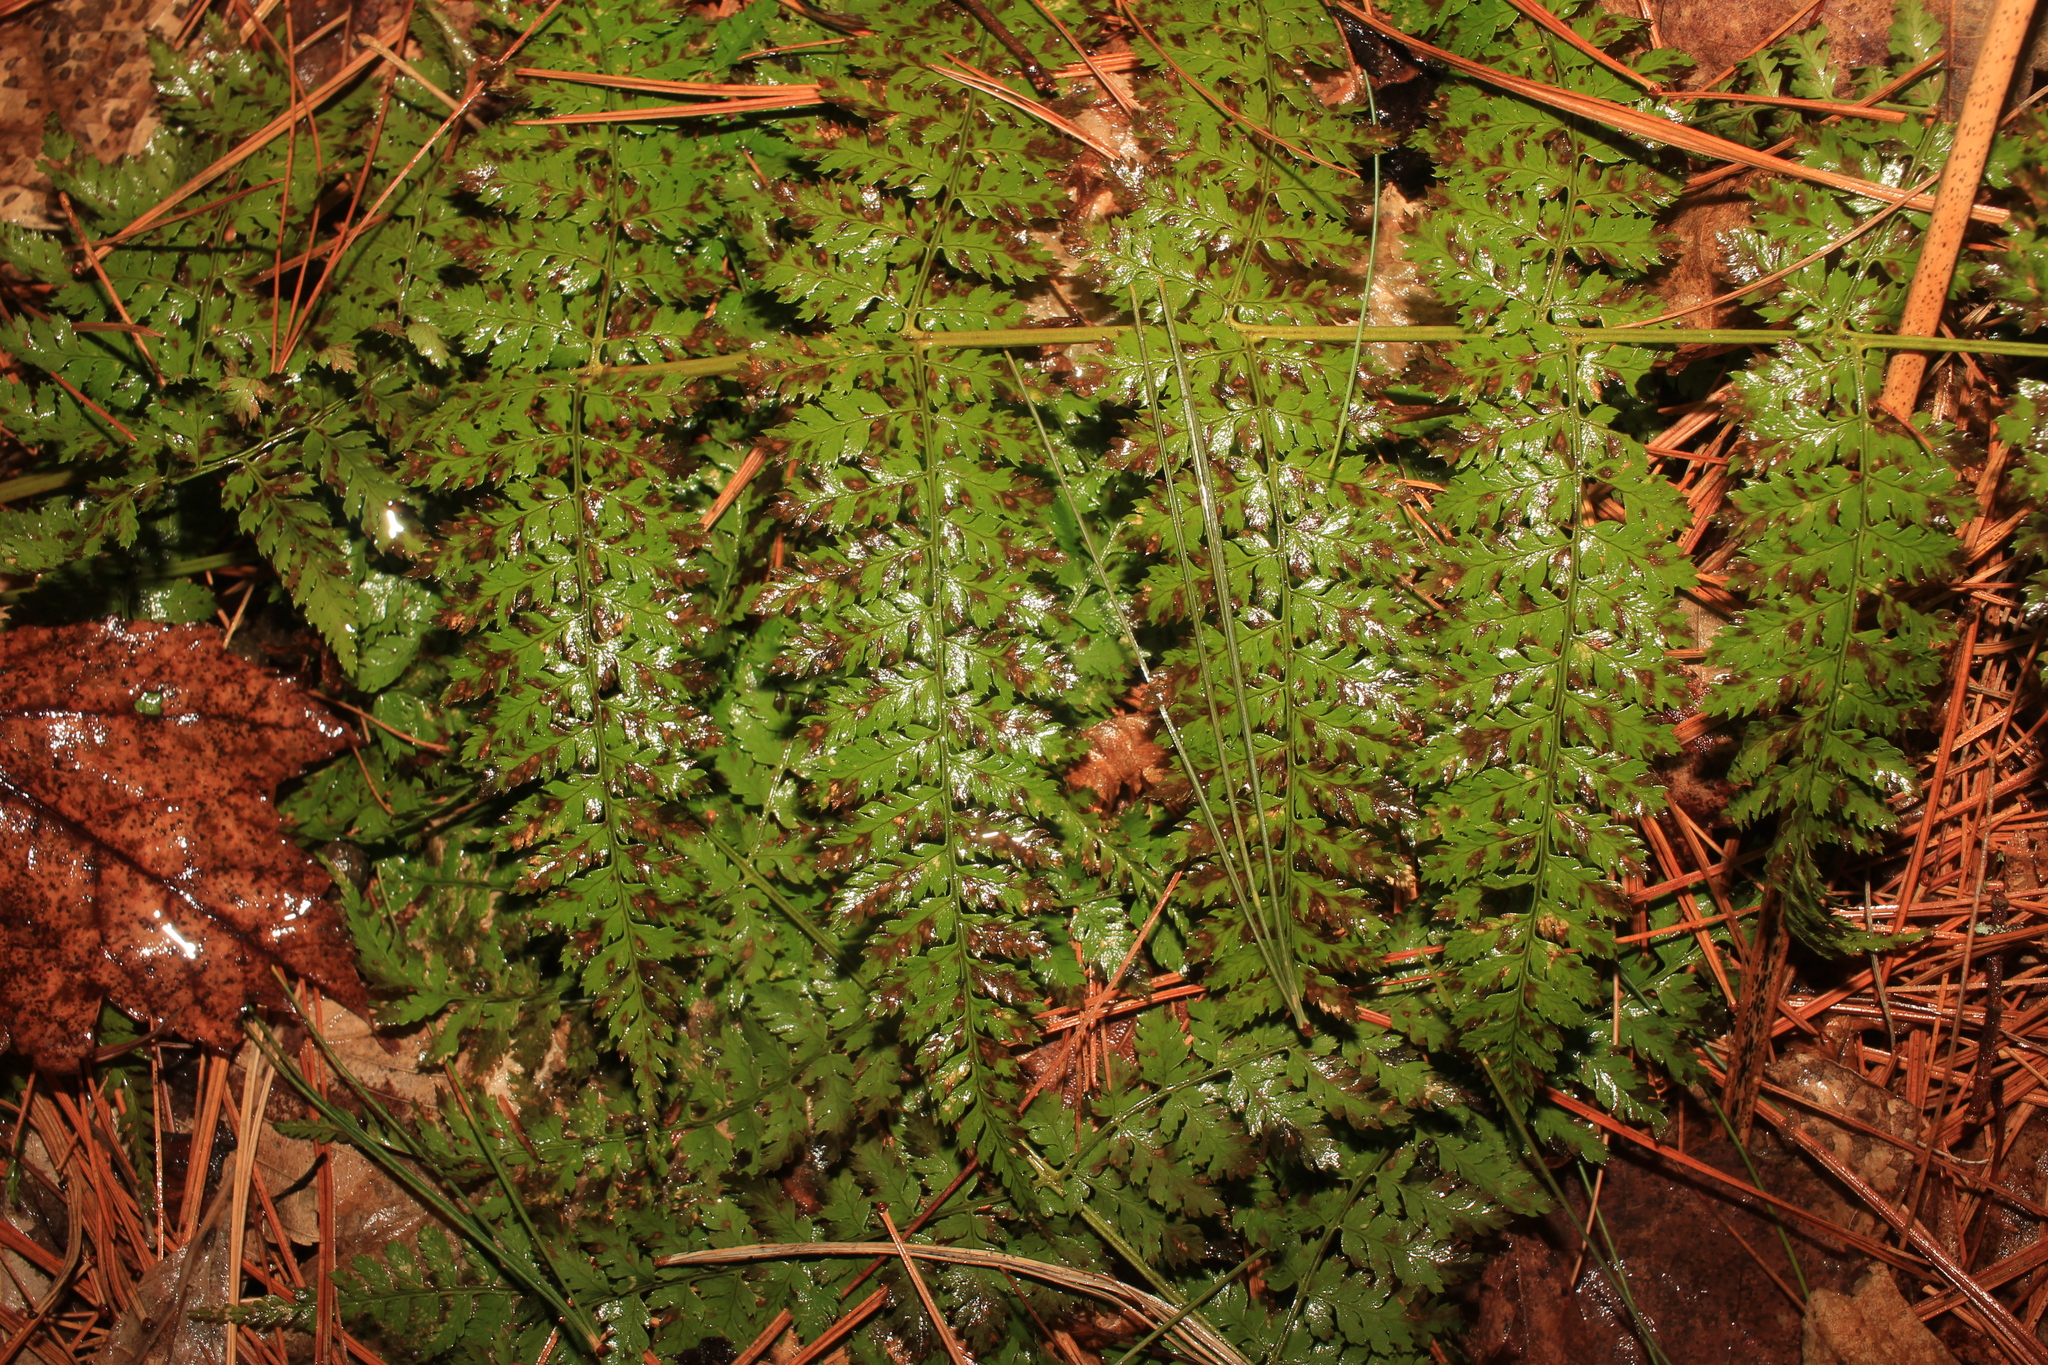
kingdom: Plantae
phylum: Tracheophyta
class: Polypodiopsida
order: Polypodiales
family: Dryopteridaceae
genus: Dryopteris
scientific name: Dryopteris
